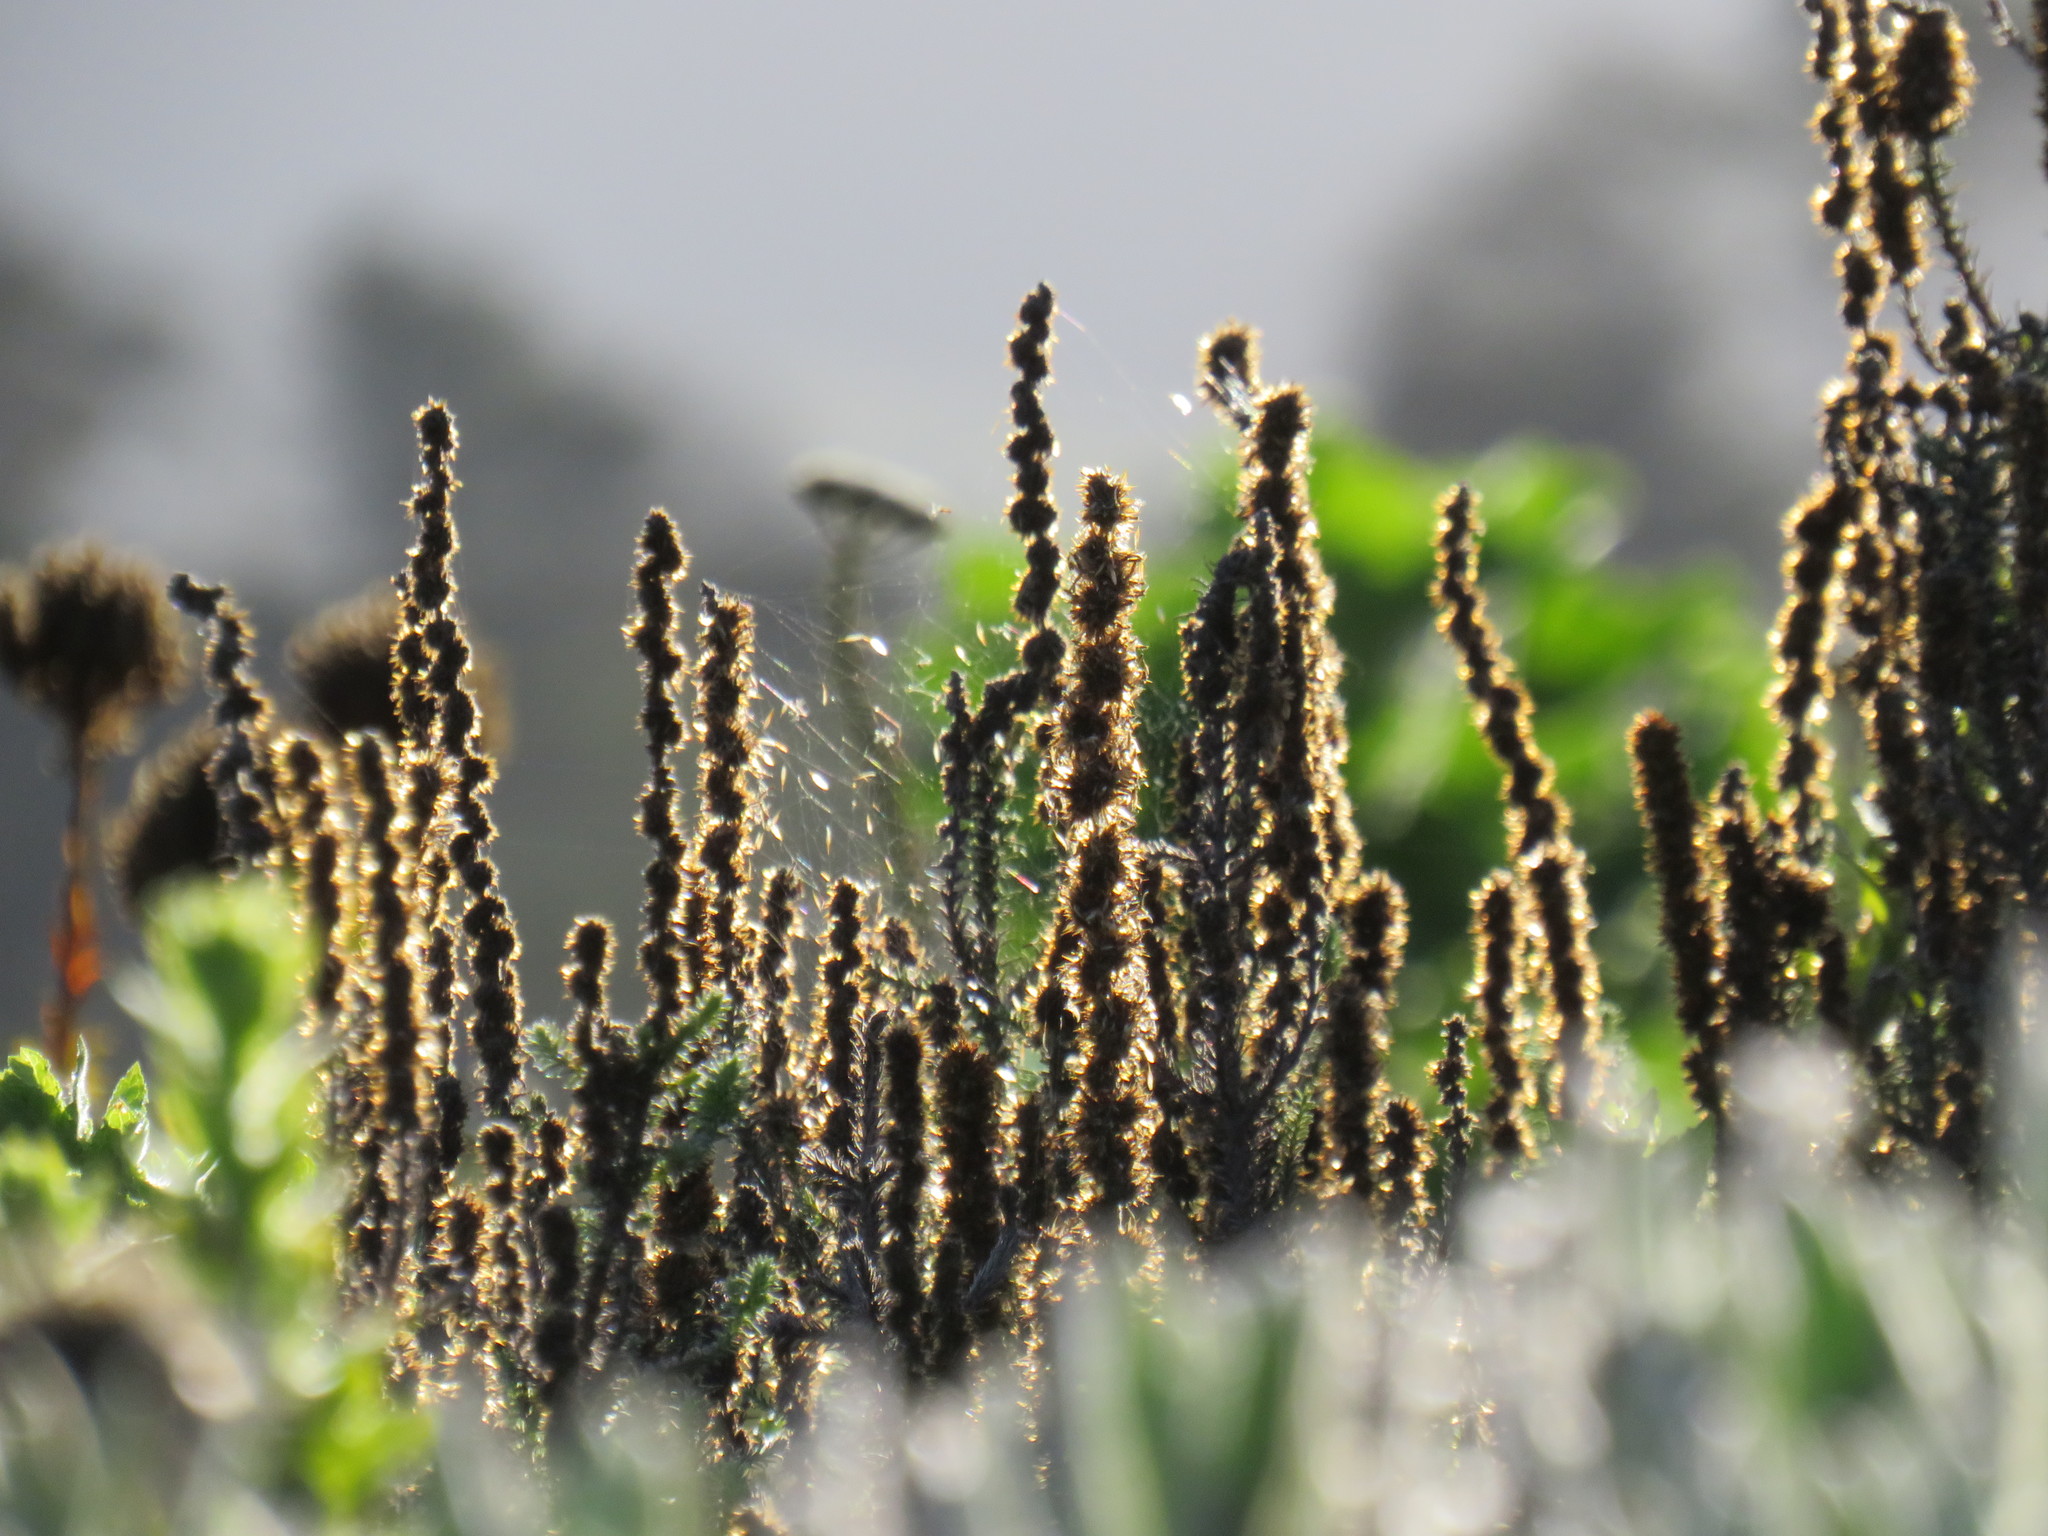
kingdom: Plantae
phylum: Tracheophyta
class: Magnoliopsida
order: Asterales
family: Asteraceae
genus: Seriphium
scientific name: Seriphium cinereum
